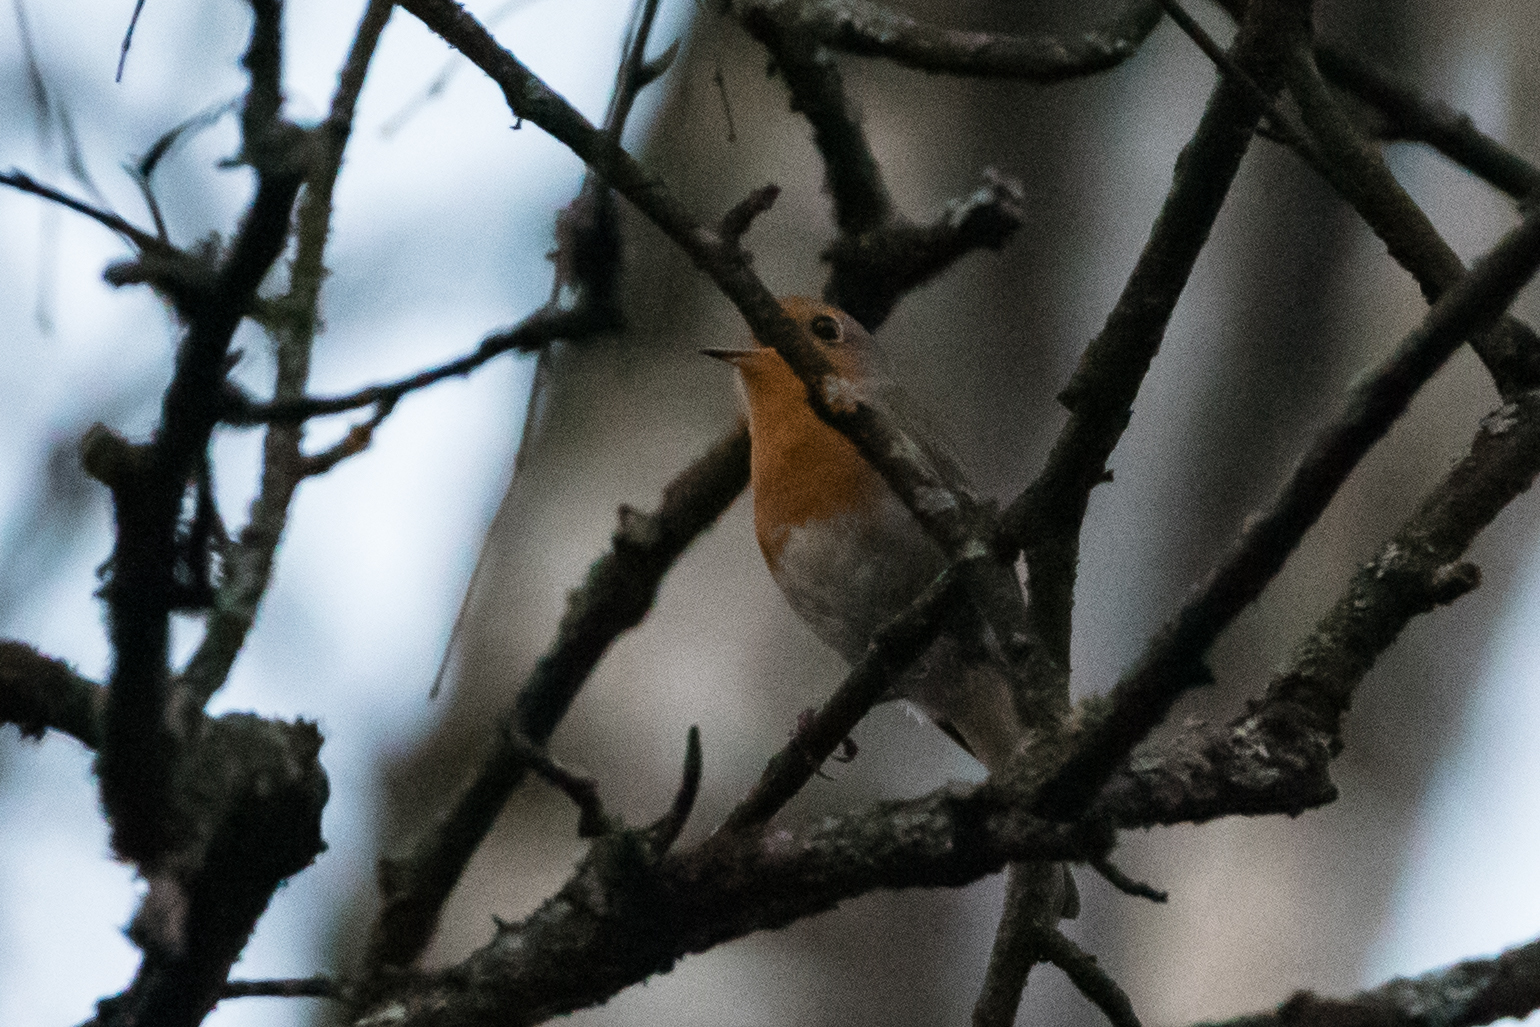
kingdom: Animalia
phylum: Chordata
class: Aves
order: Passeriformes
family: Muscicapidae
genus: Erithacus
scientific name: Erithacus rubecula
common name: European robin
